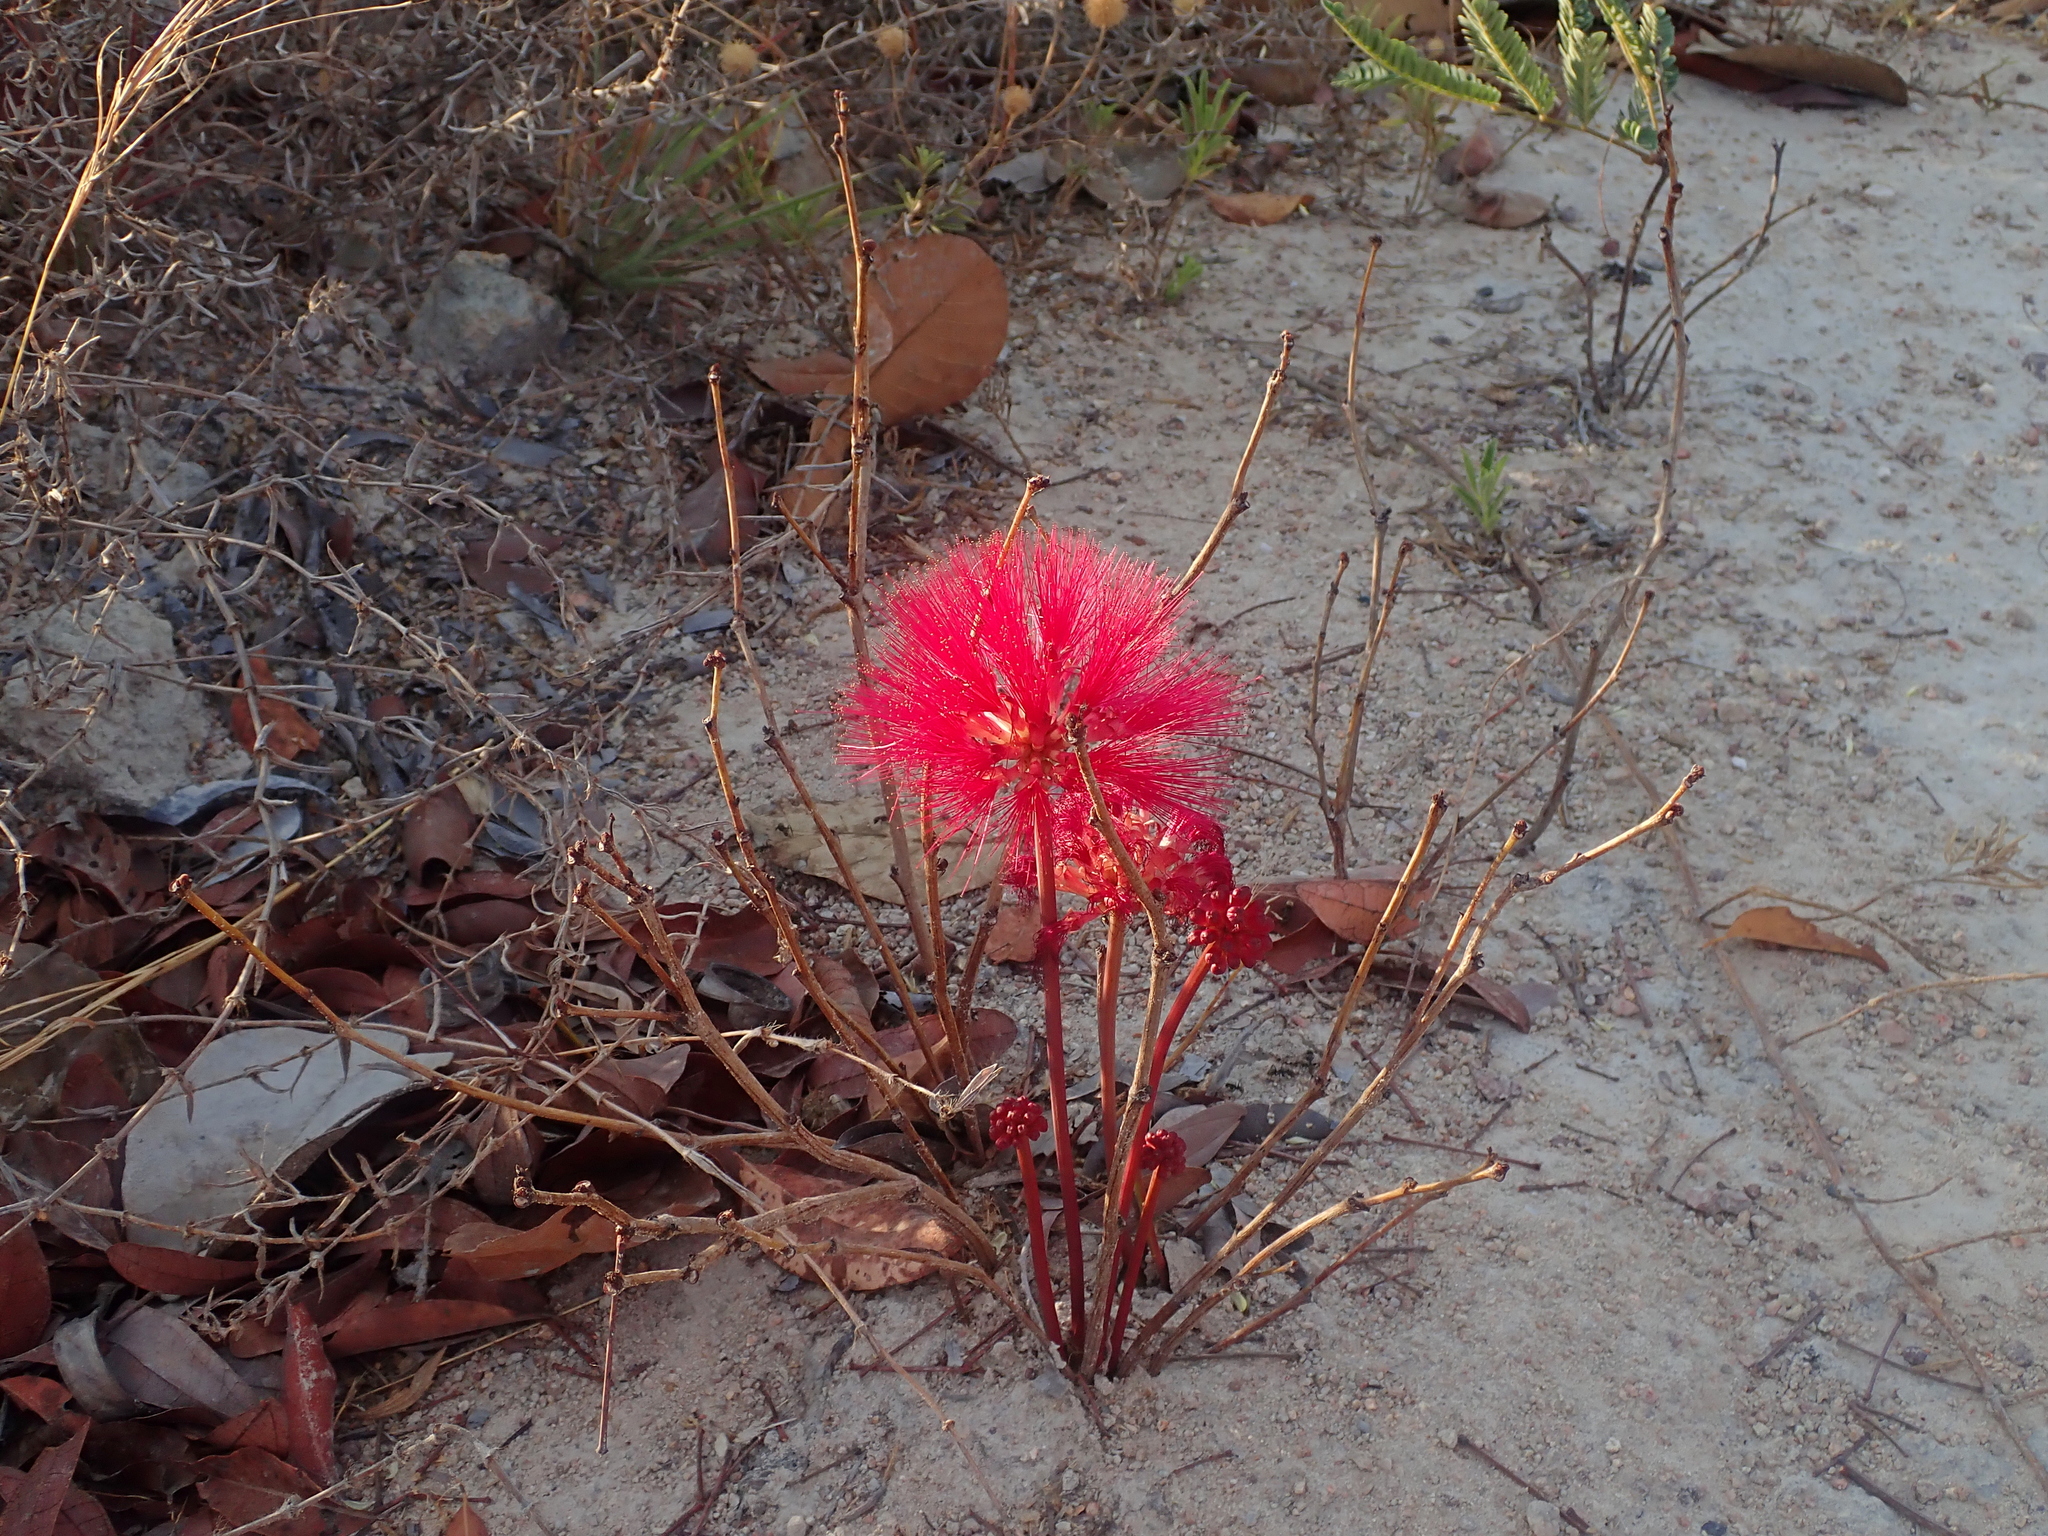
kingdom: Plantae
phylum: Tracheophyta
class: Magnoliopsida
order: Fabales
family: Fabaceae
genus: Calliandra
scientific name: Calliandra longipes
